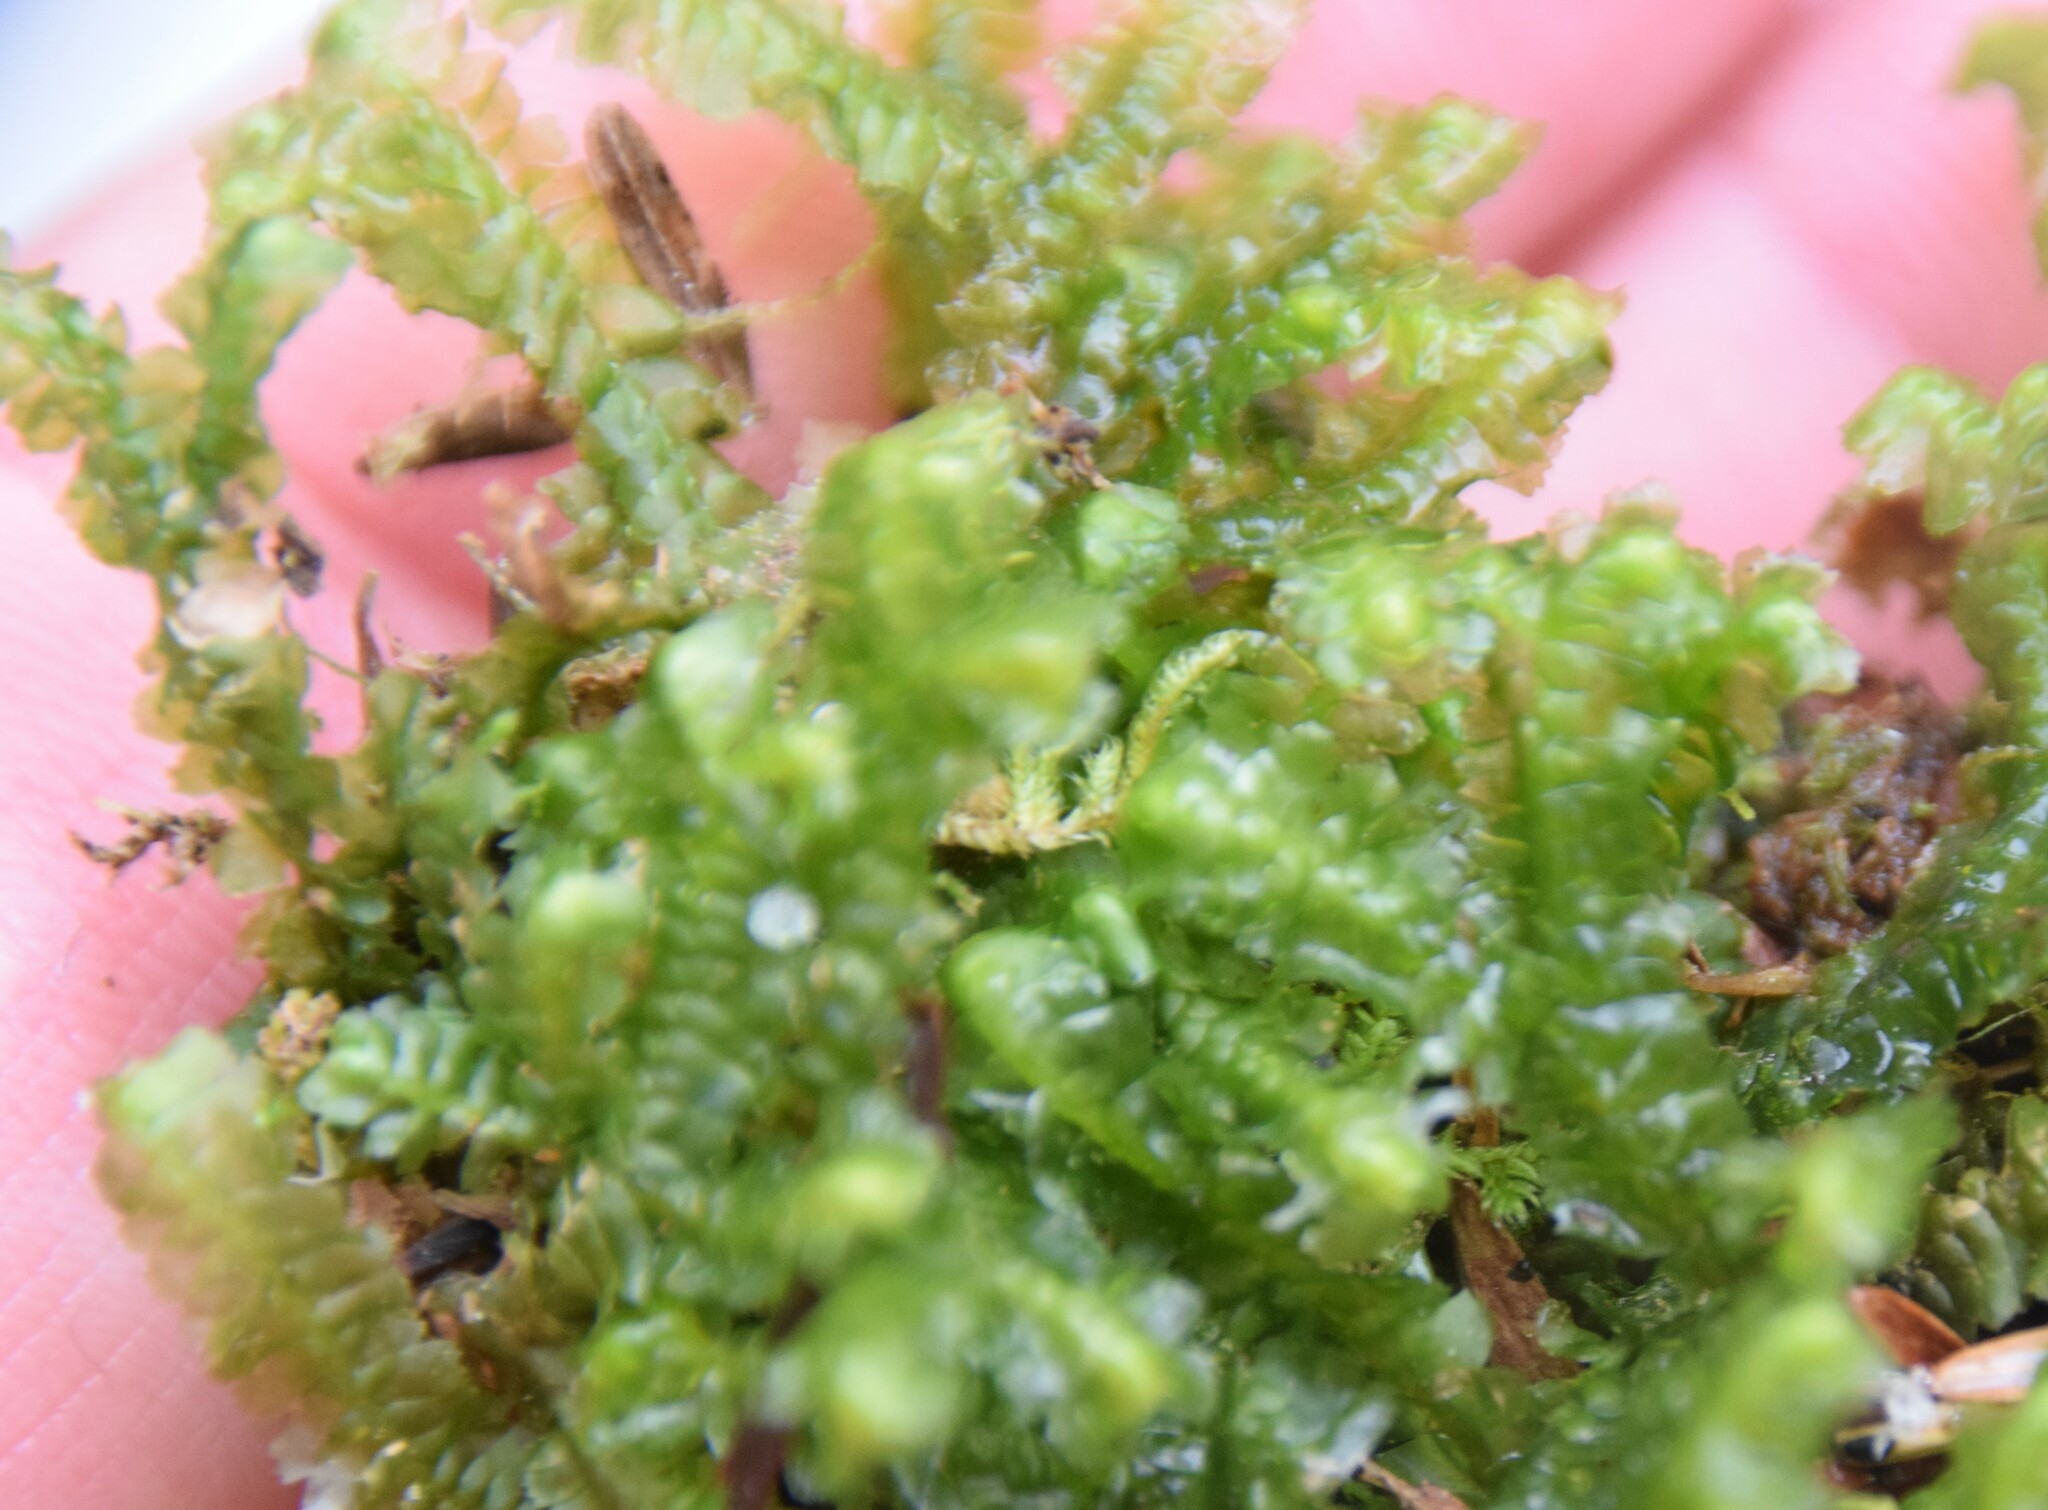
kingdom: Plantae
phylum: Marchantiophyta
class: Jungermanniopsida
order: Jungermanniales
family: Lepidoziaceae
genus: Bazzania
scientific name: Bazzania trilobata
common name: Three-lobed whipwort
